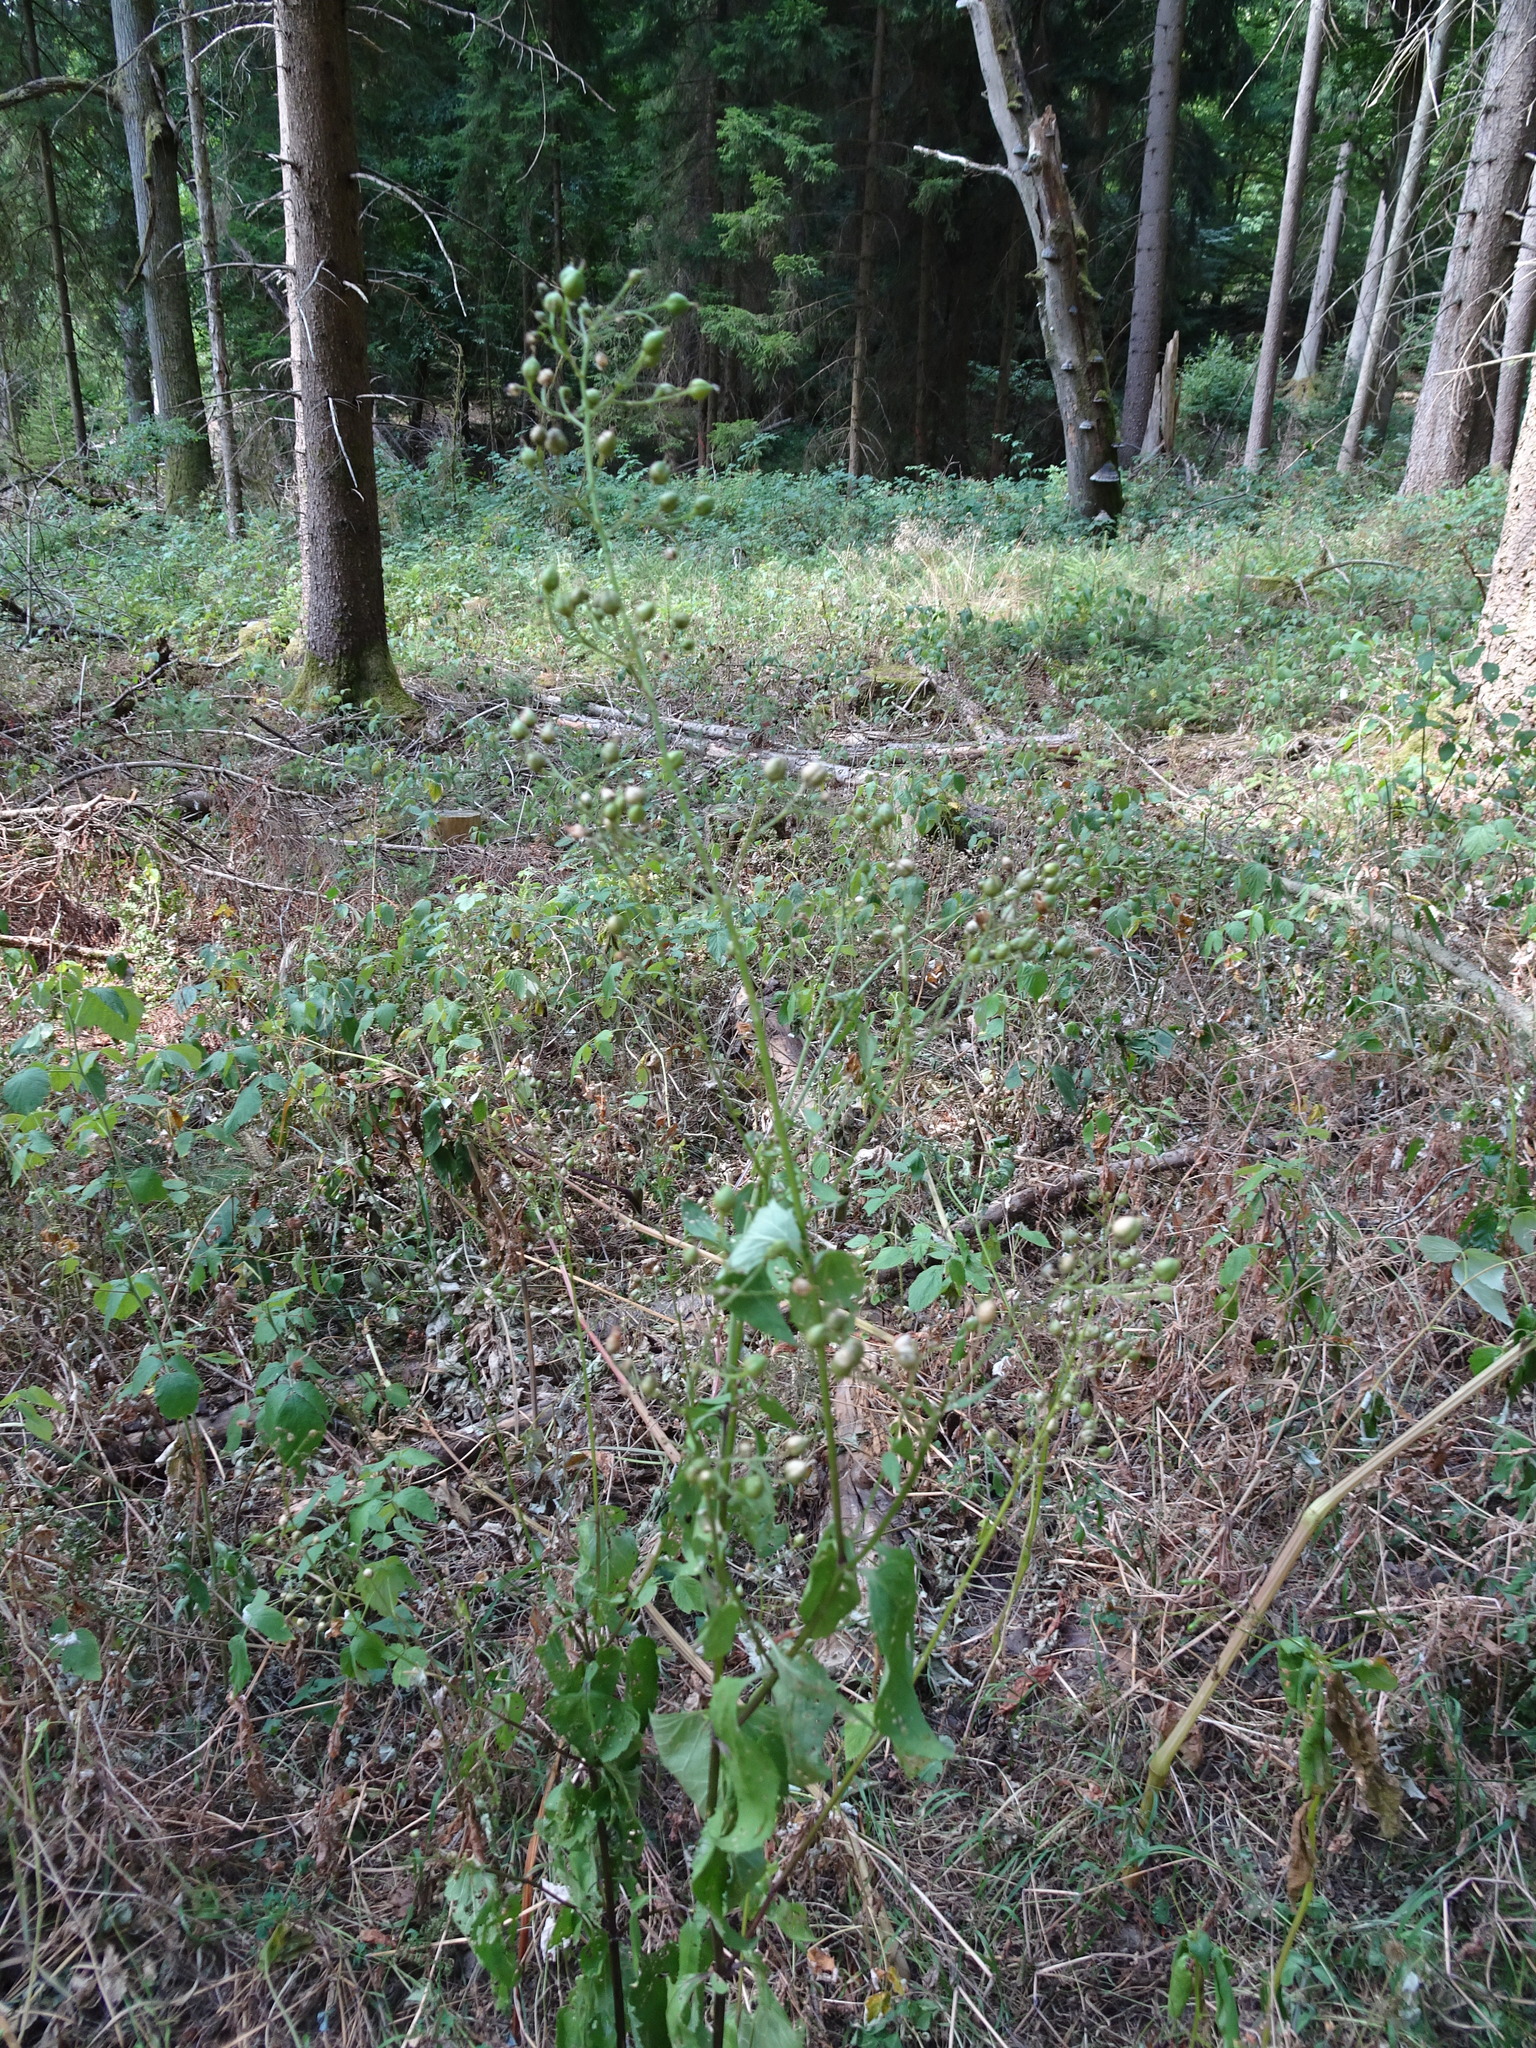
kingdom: Plantae
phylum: Tracheophyta
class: Magnoliopsida
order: Lamiales
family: Scrophulariaceae
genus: Scrophularia
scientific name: Scrophularia nodosa
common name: Common figwort
